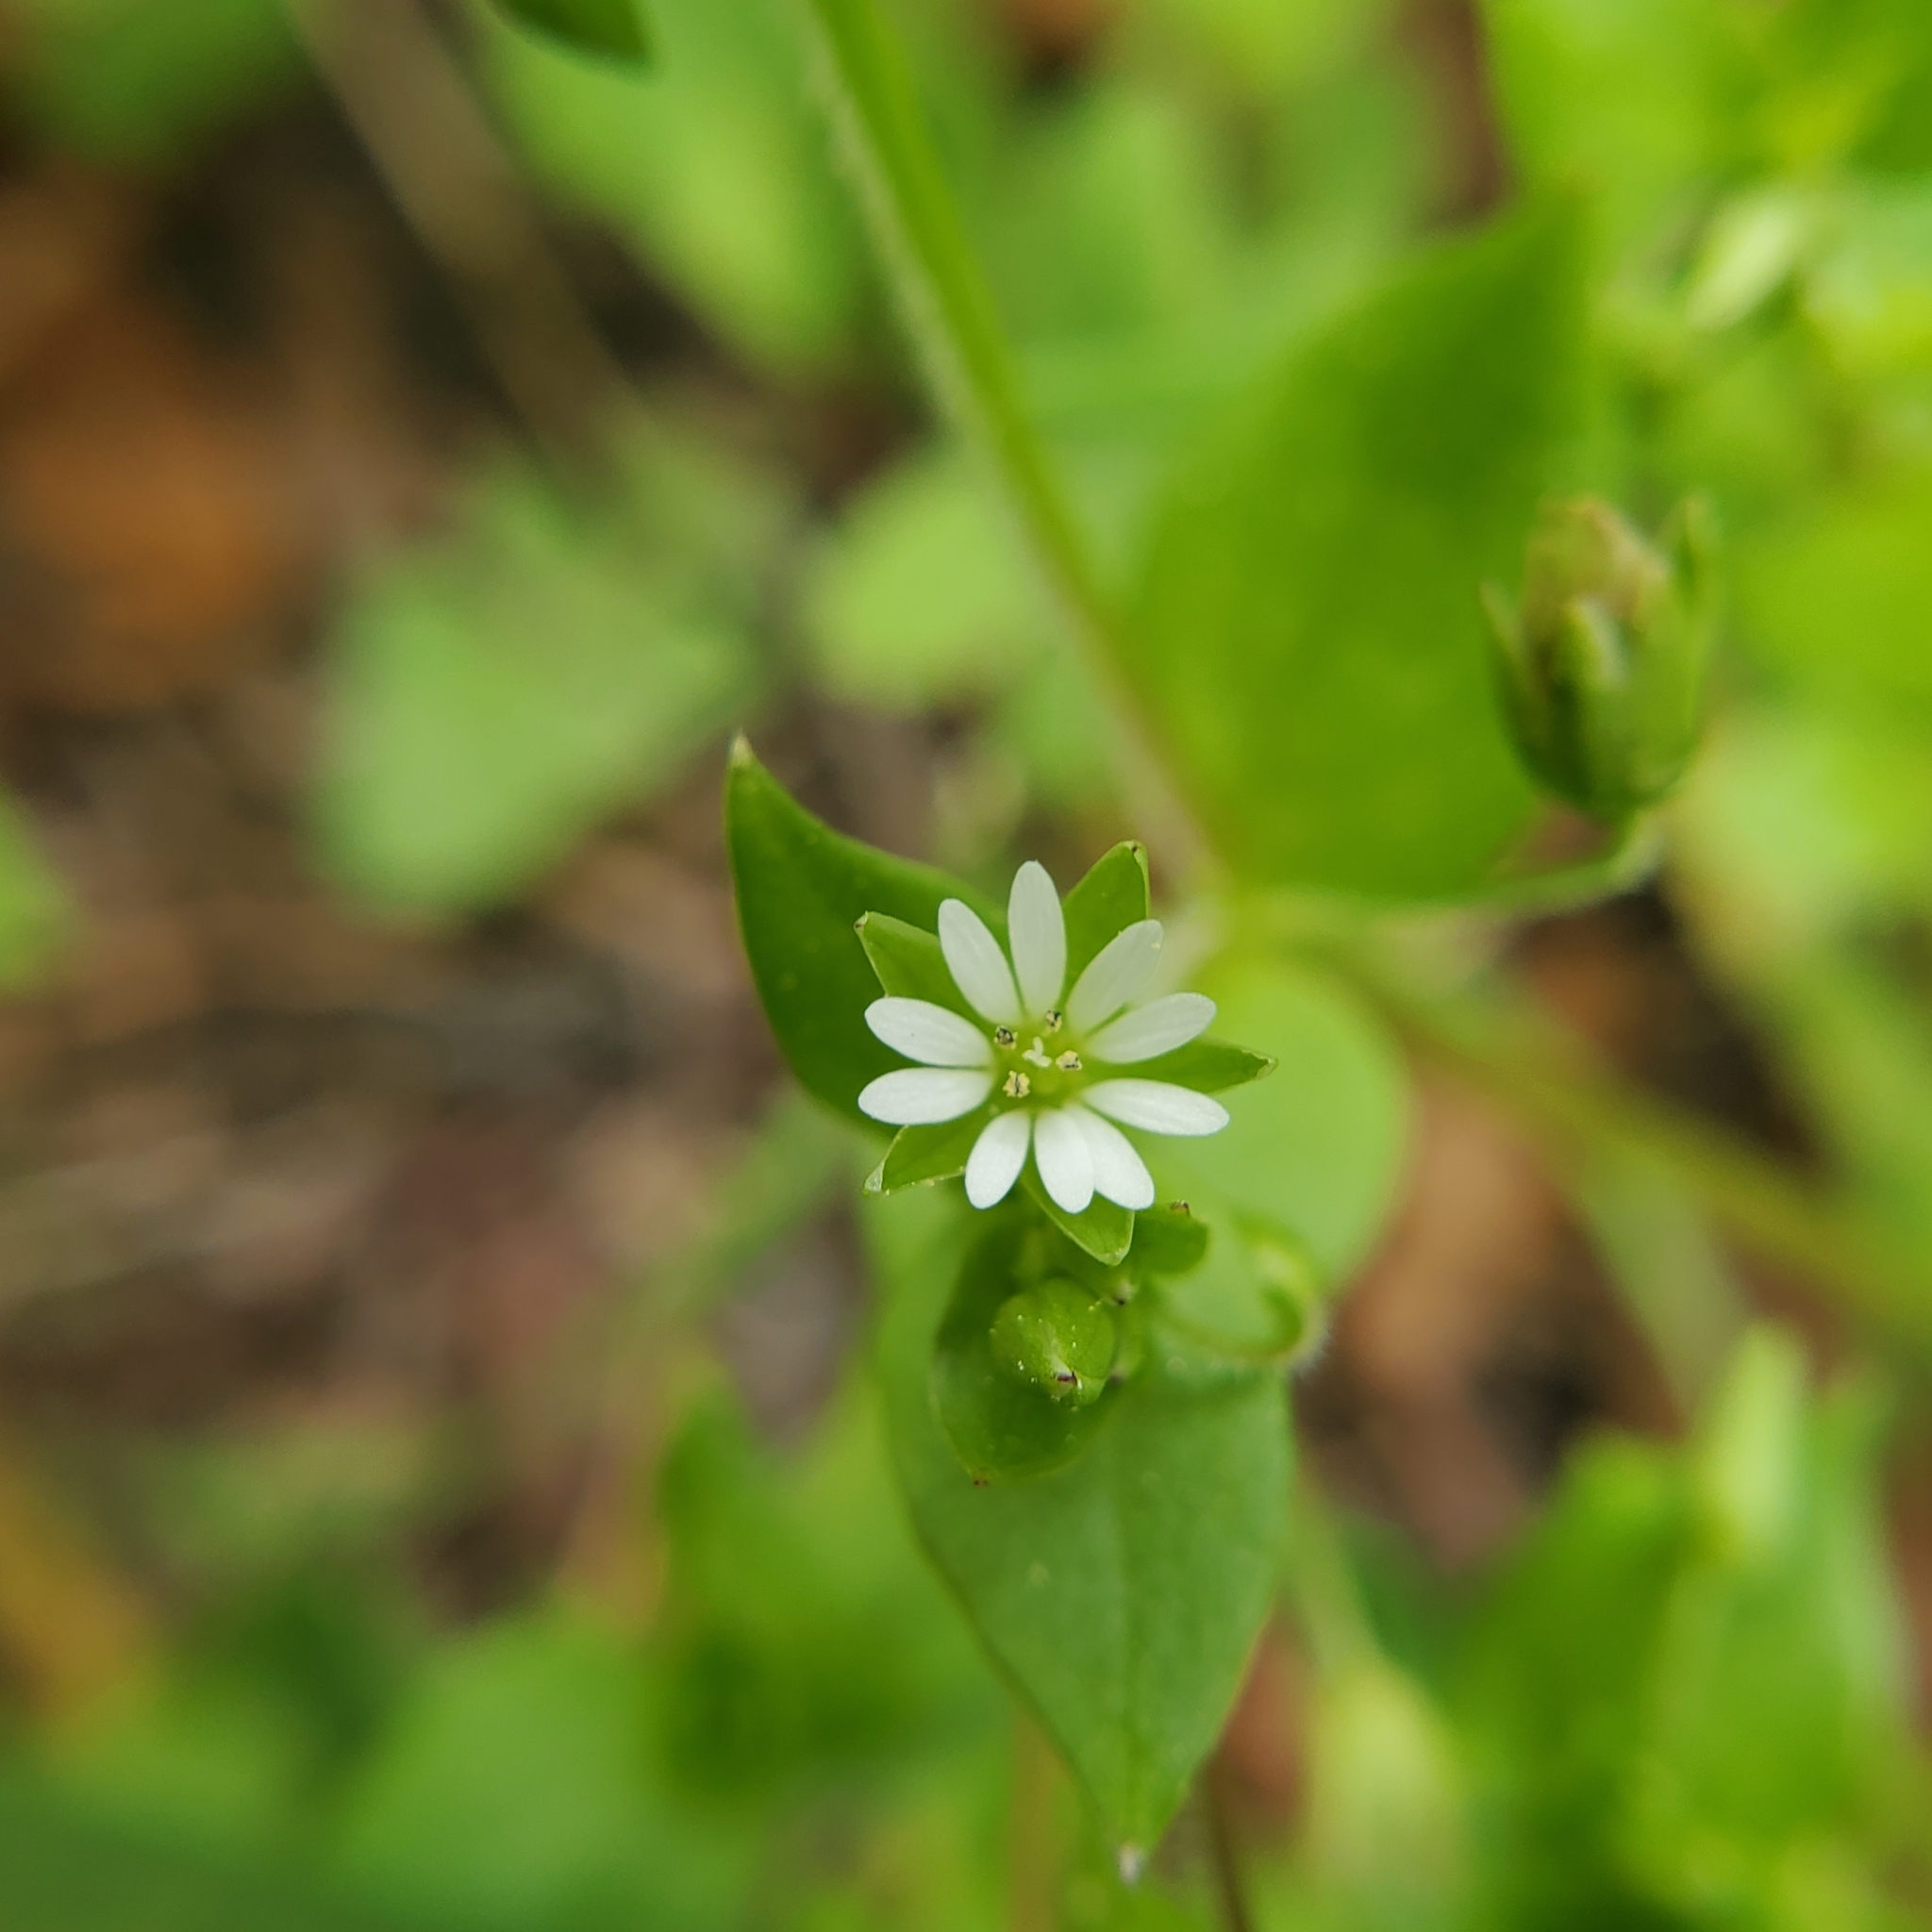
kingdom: Plantae
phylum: Tracheophyta
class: Magnoliopsida
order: Caryophyllales
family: Caryophyllaceae
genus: Stellaria
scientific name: Stellaria media
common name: Common chickweed
